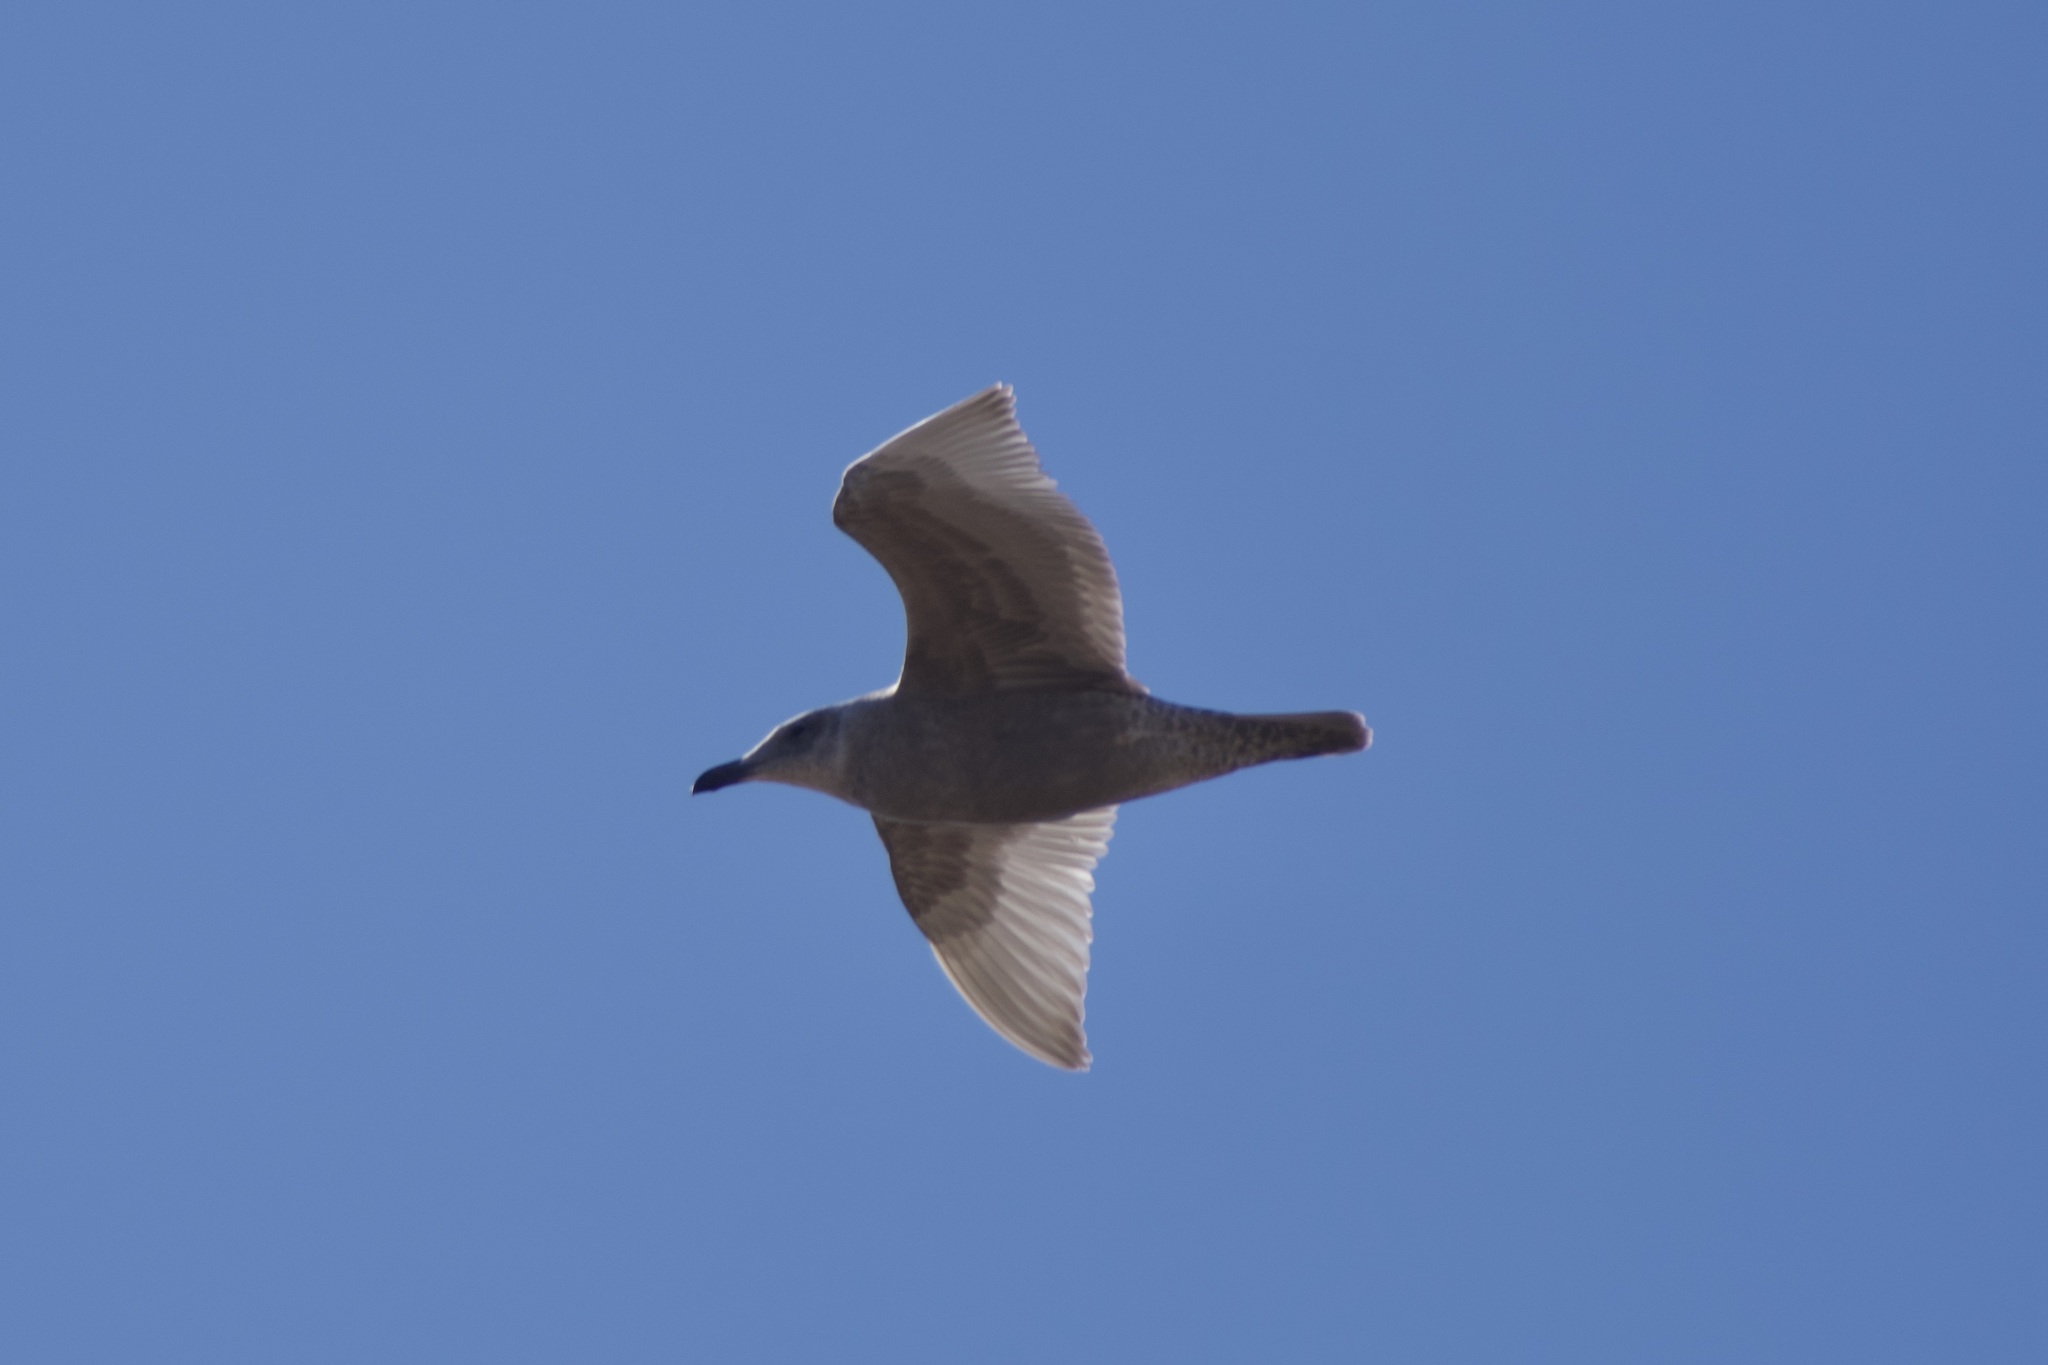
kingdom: Animalia
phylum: Chordata
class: Aves
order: Charadriiformes
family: Laridae
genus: Larus
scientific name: Larus glaucescens
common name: Glaucous-winged gull
